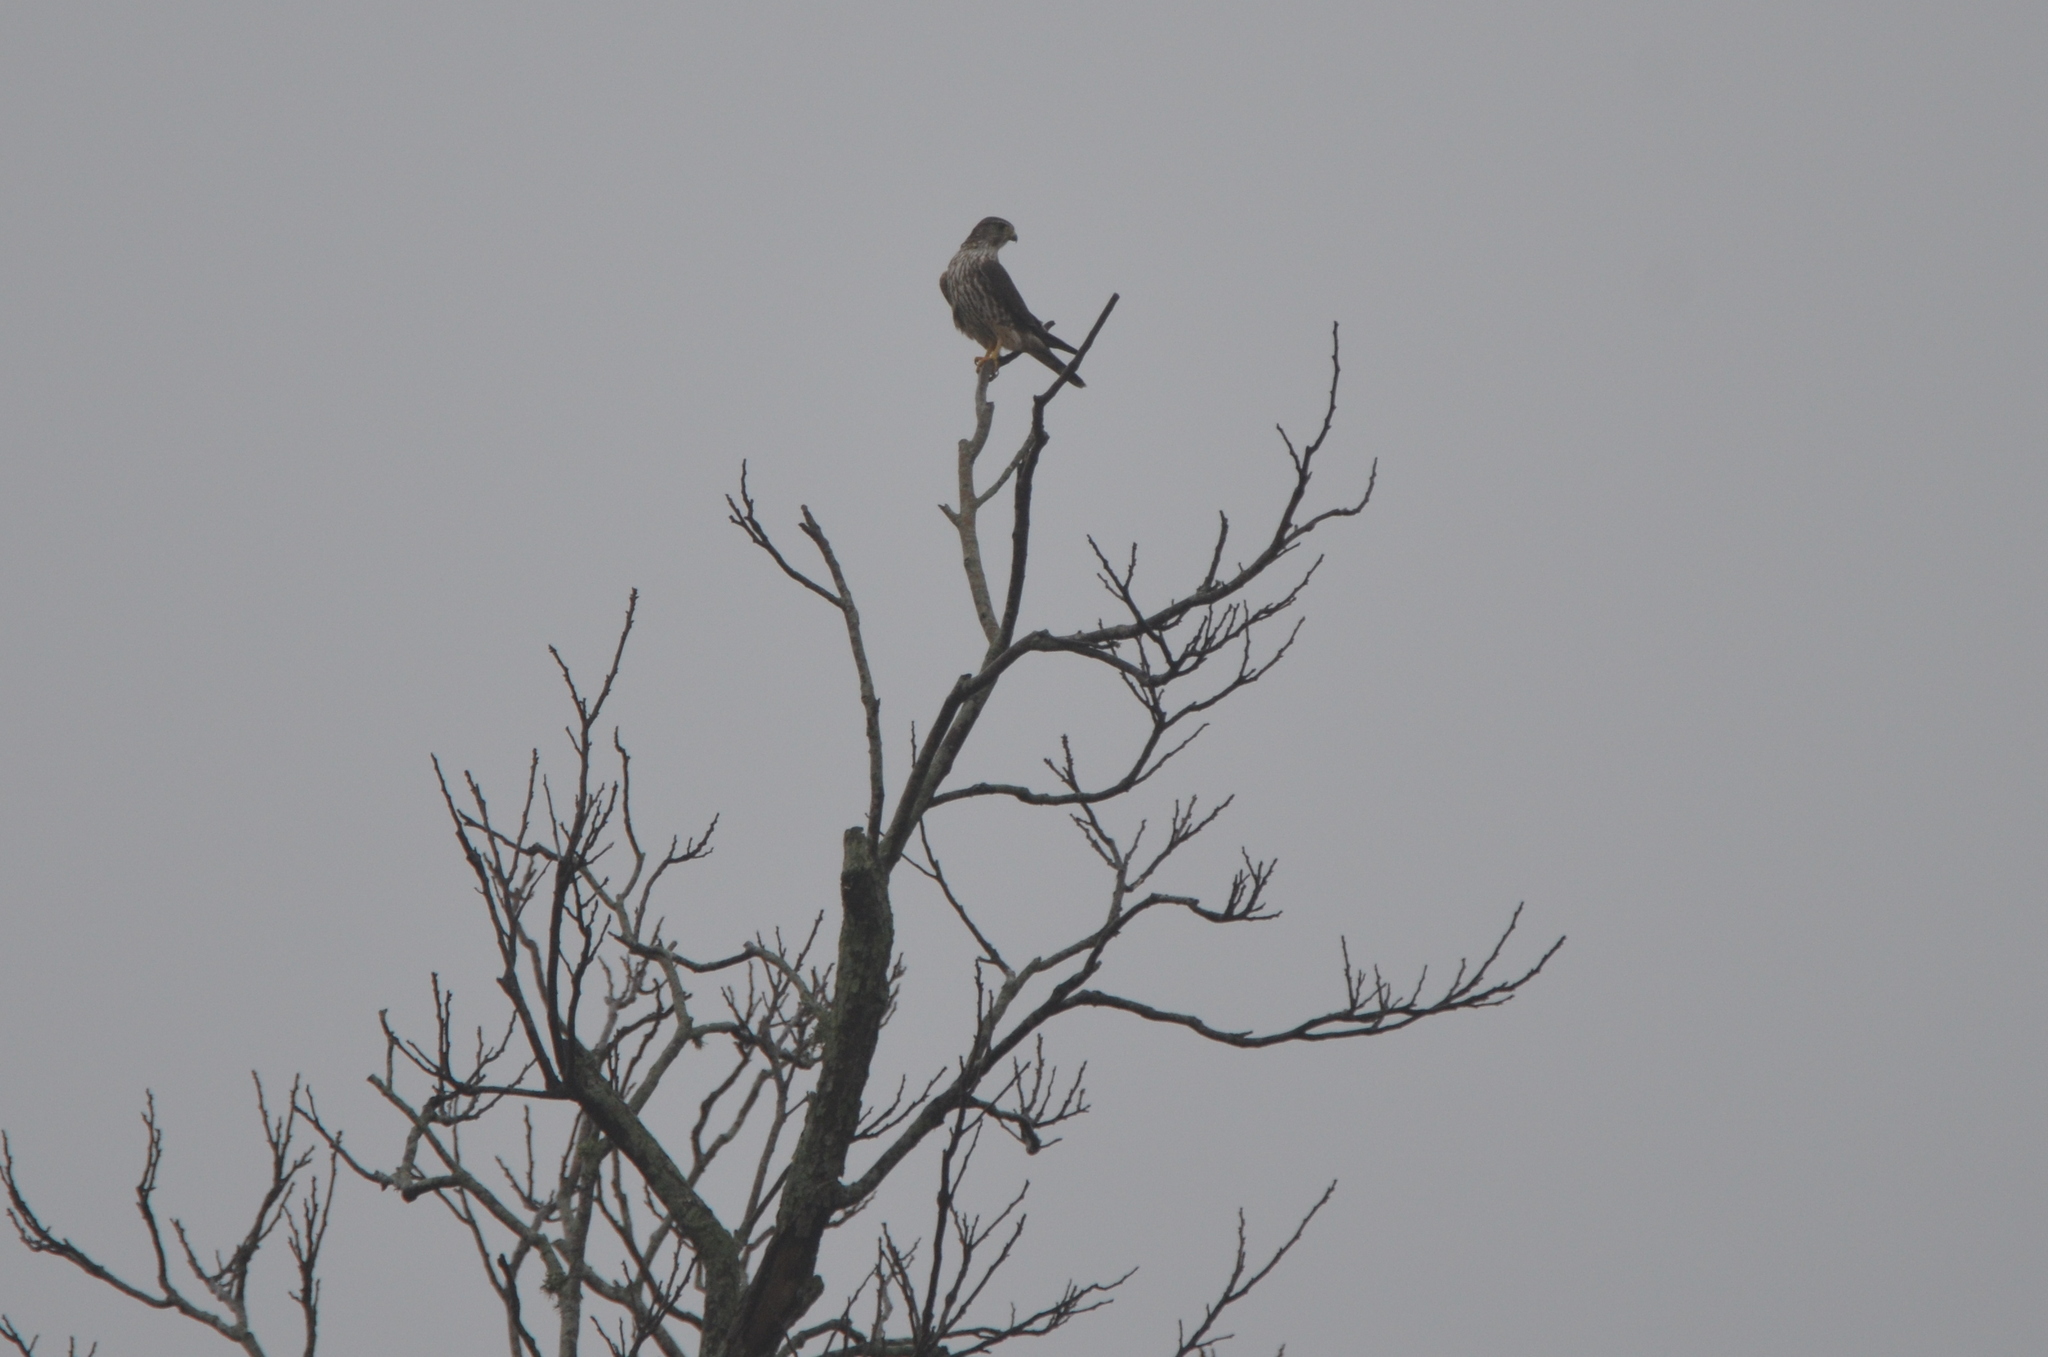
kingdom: Animalia
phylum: Chordata
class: Aves
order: Falconiformes
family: Falconidae
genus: Falco
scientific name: Falco columbarius
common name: Merlin
